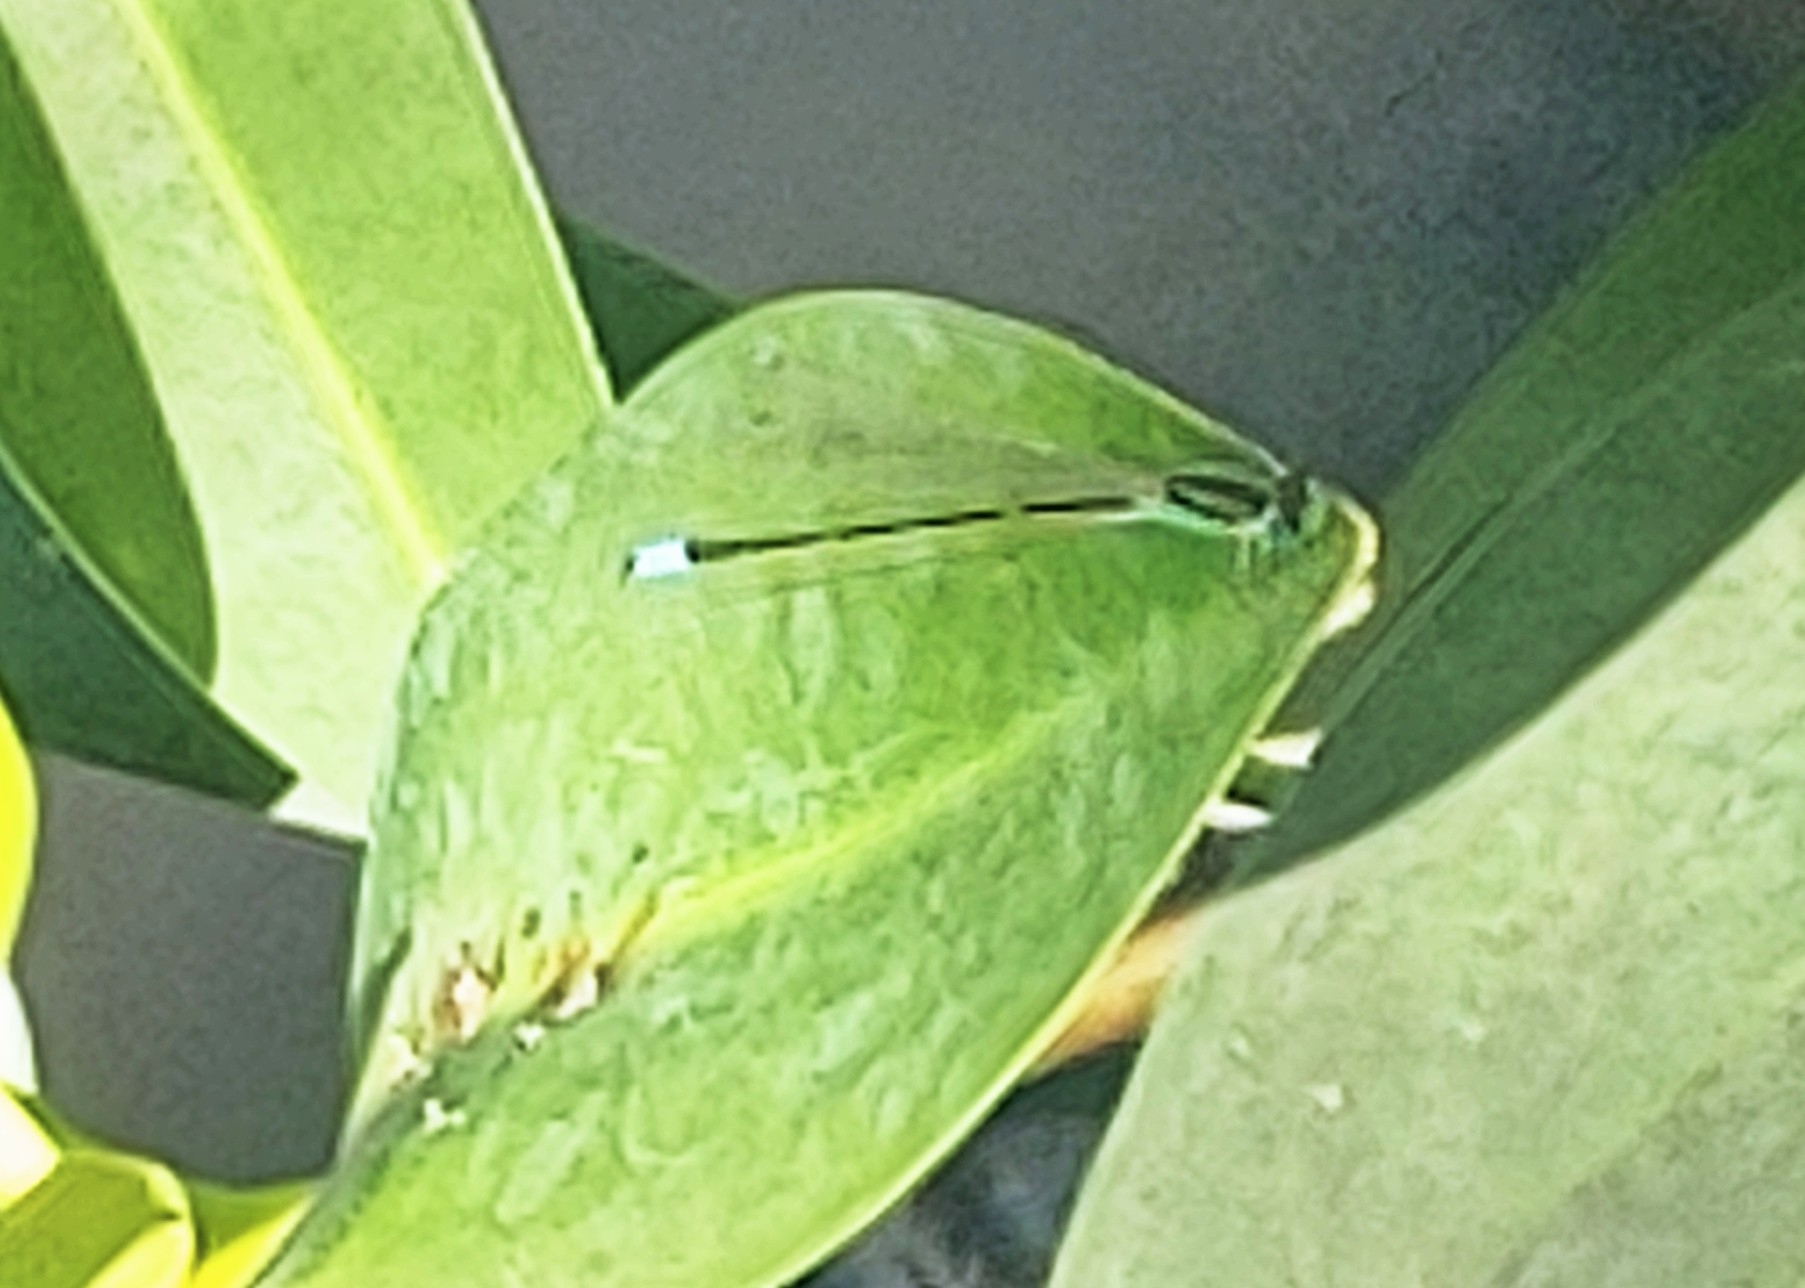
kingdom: Animalia
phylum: Arthropoda
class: Insecta
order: Odonata
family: Coenagrionidae
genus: Ischnura
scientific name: Ischnura ramburii
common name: Rambur's forktail
